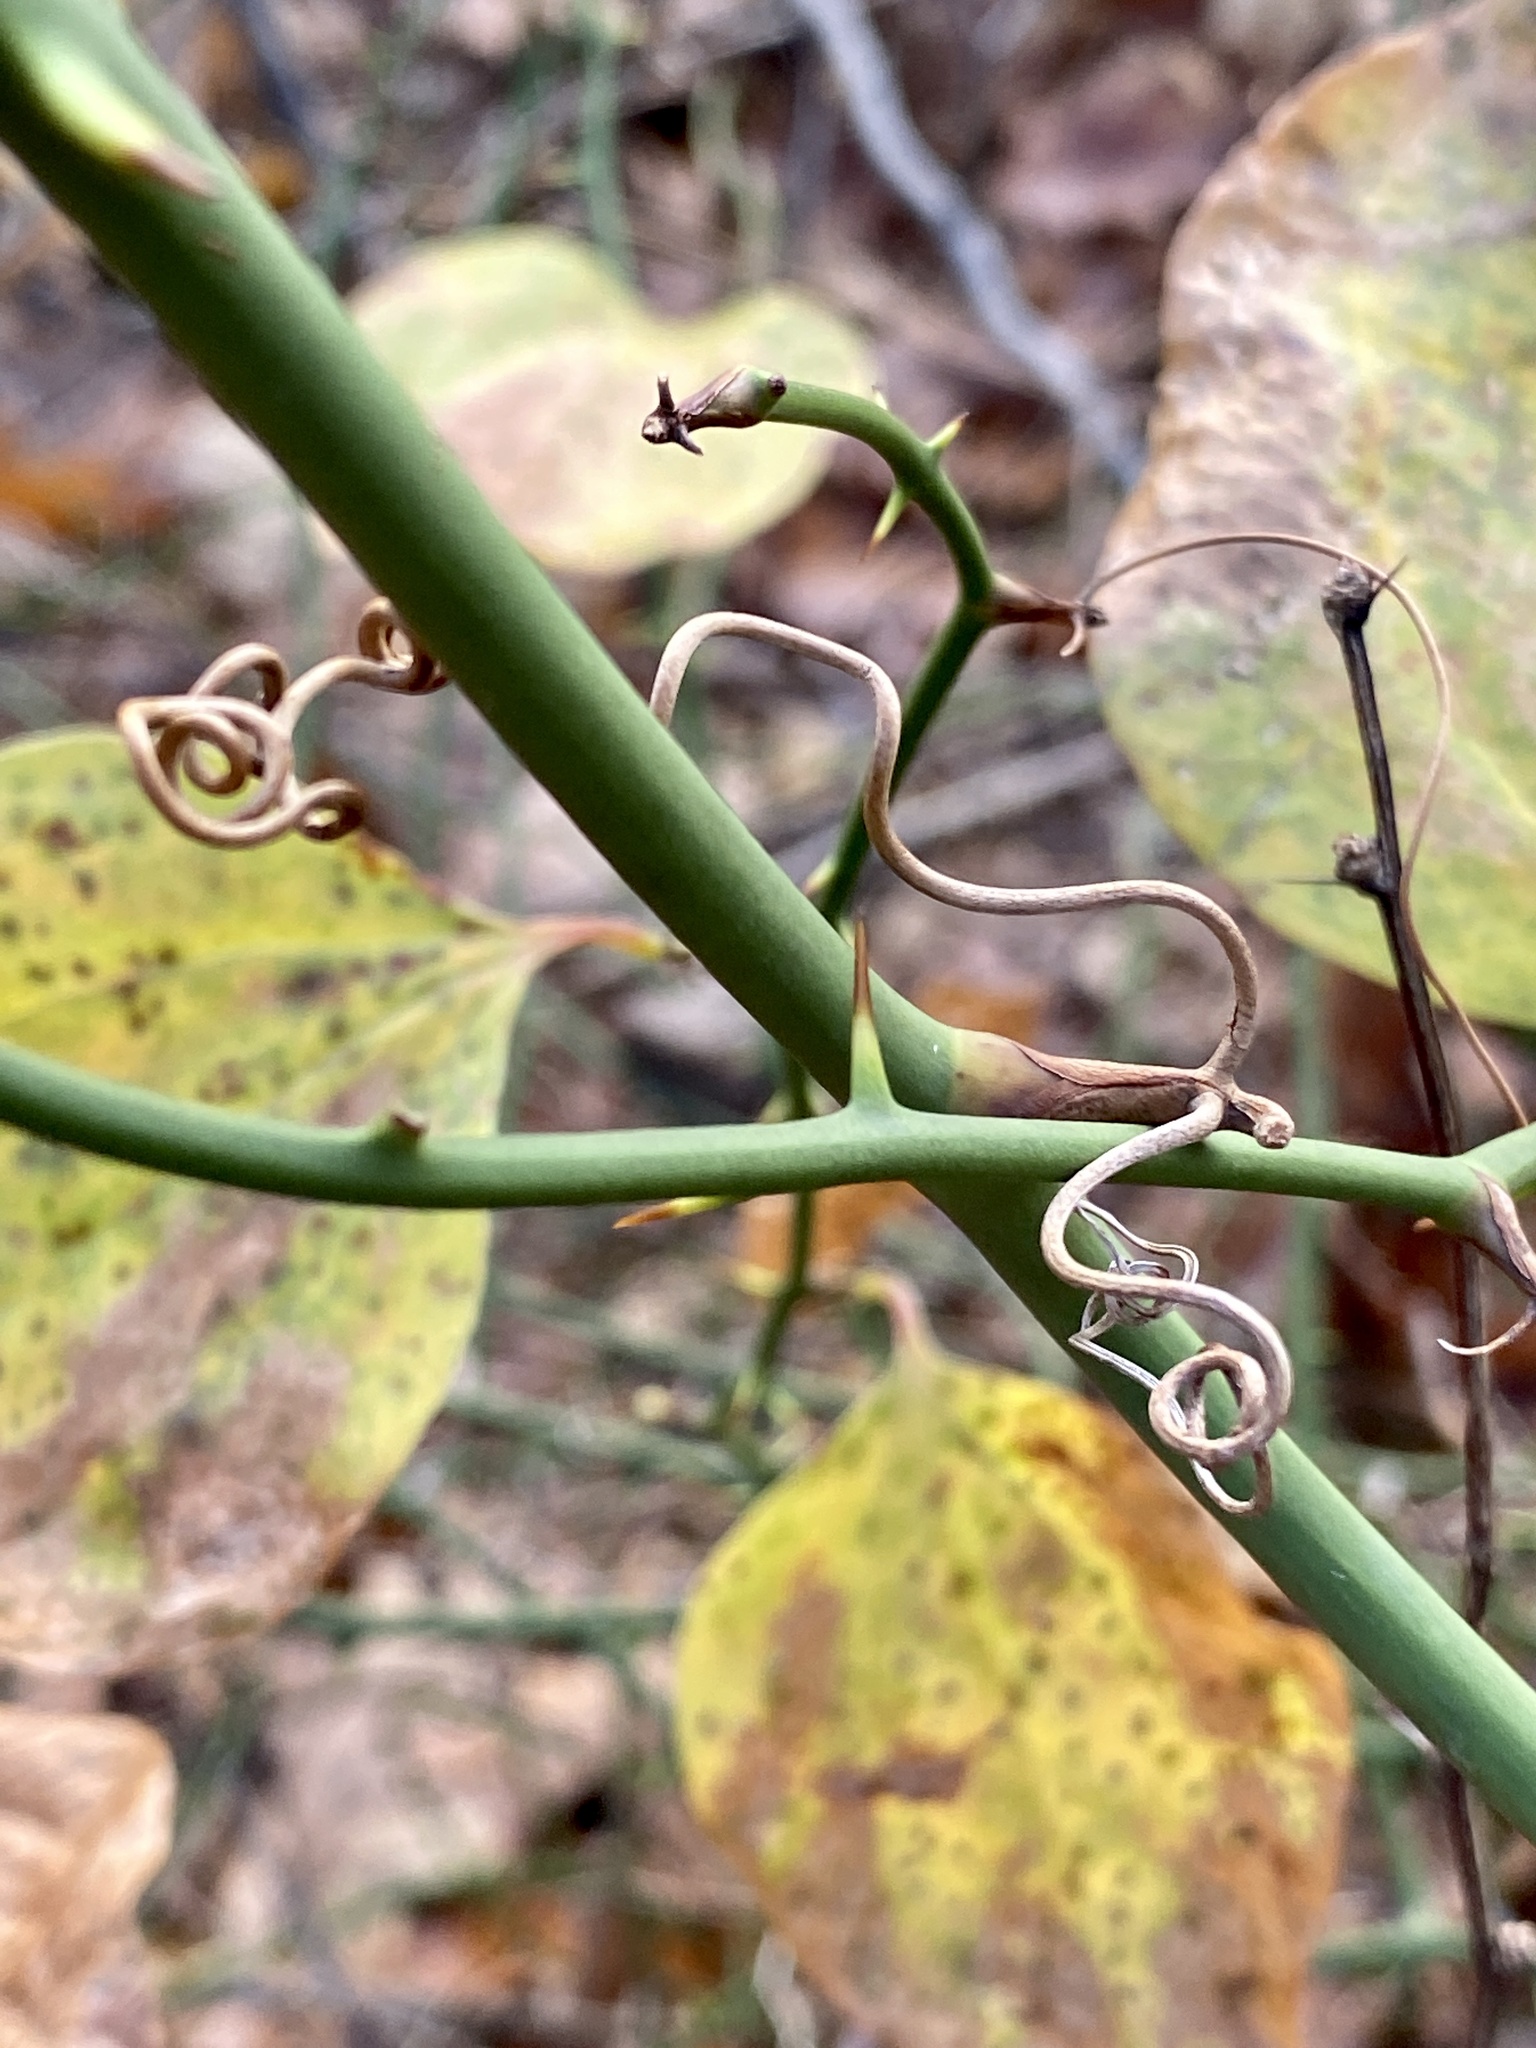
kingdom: Plantae
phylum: Tracheophyta
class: Liliopsida
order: Liliales
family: Smilacaceae
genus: Smilax
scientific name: Smilax rotundifolia
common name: Bullbriar
